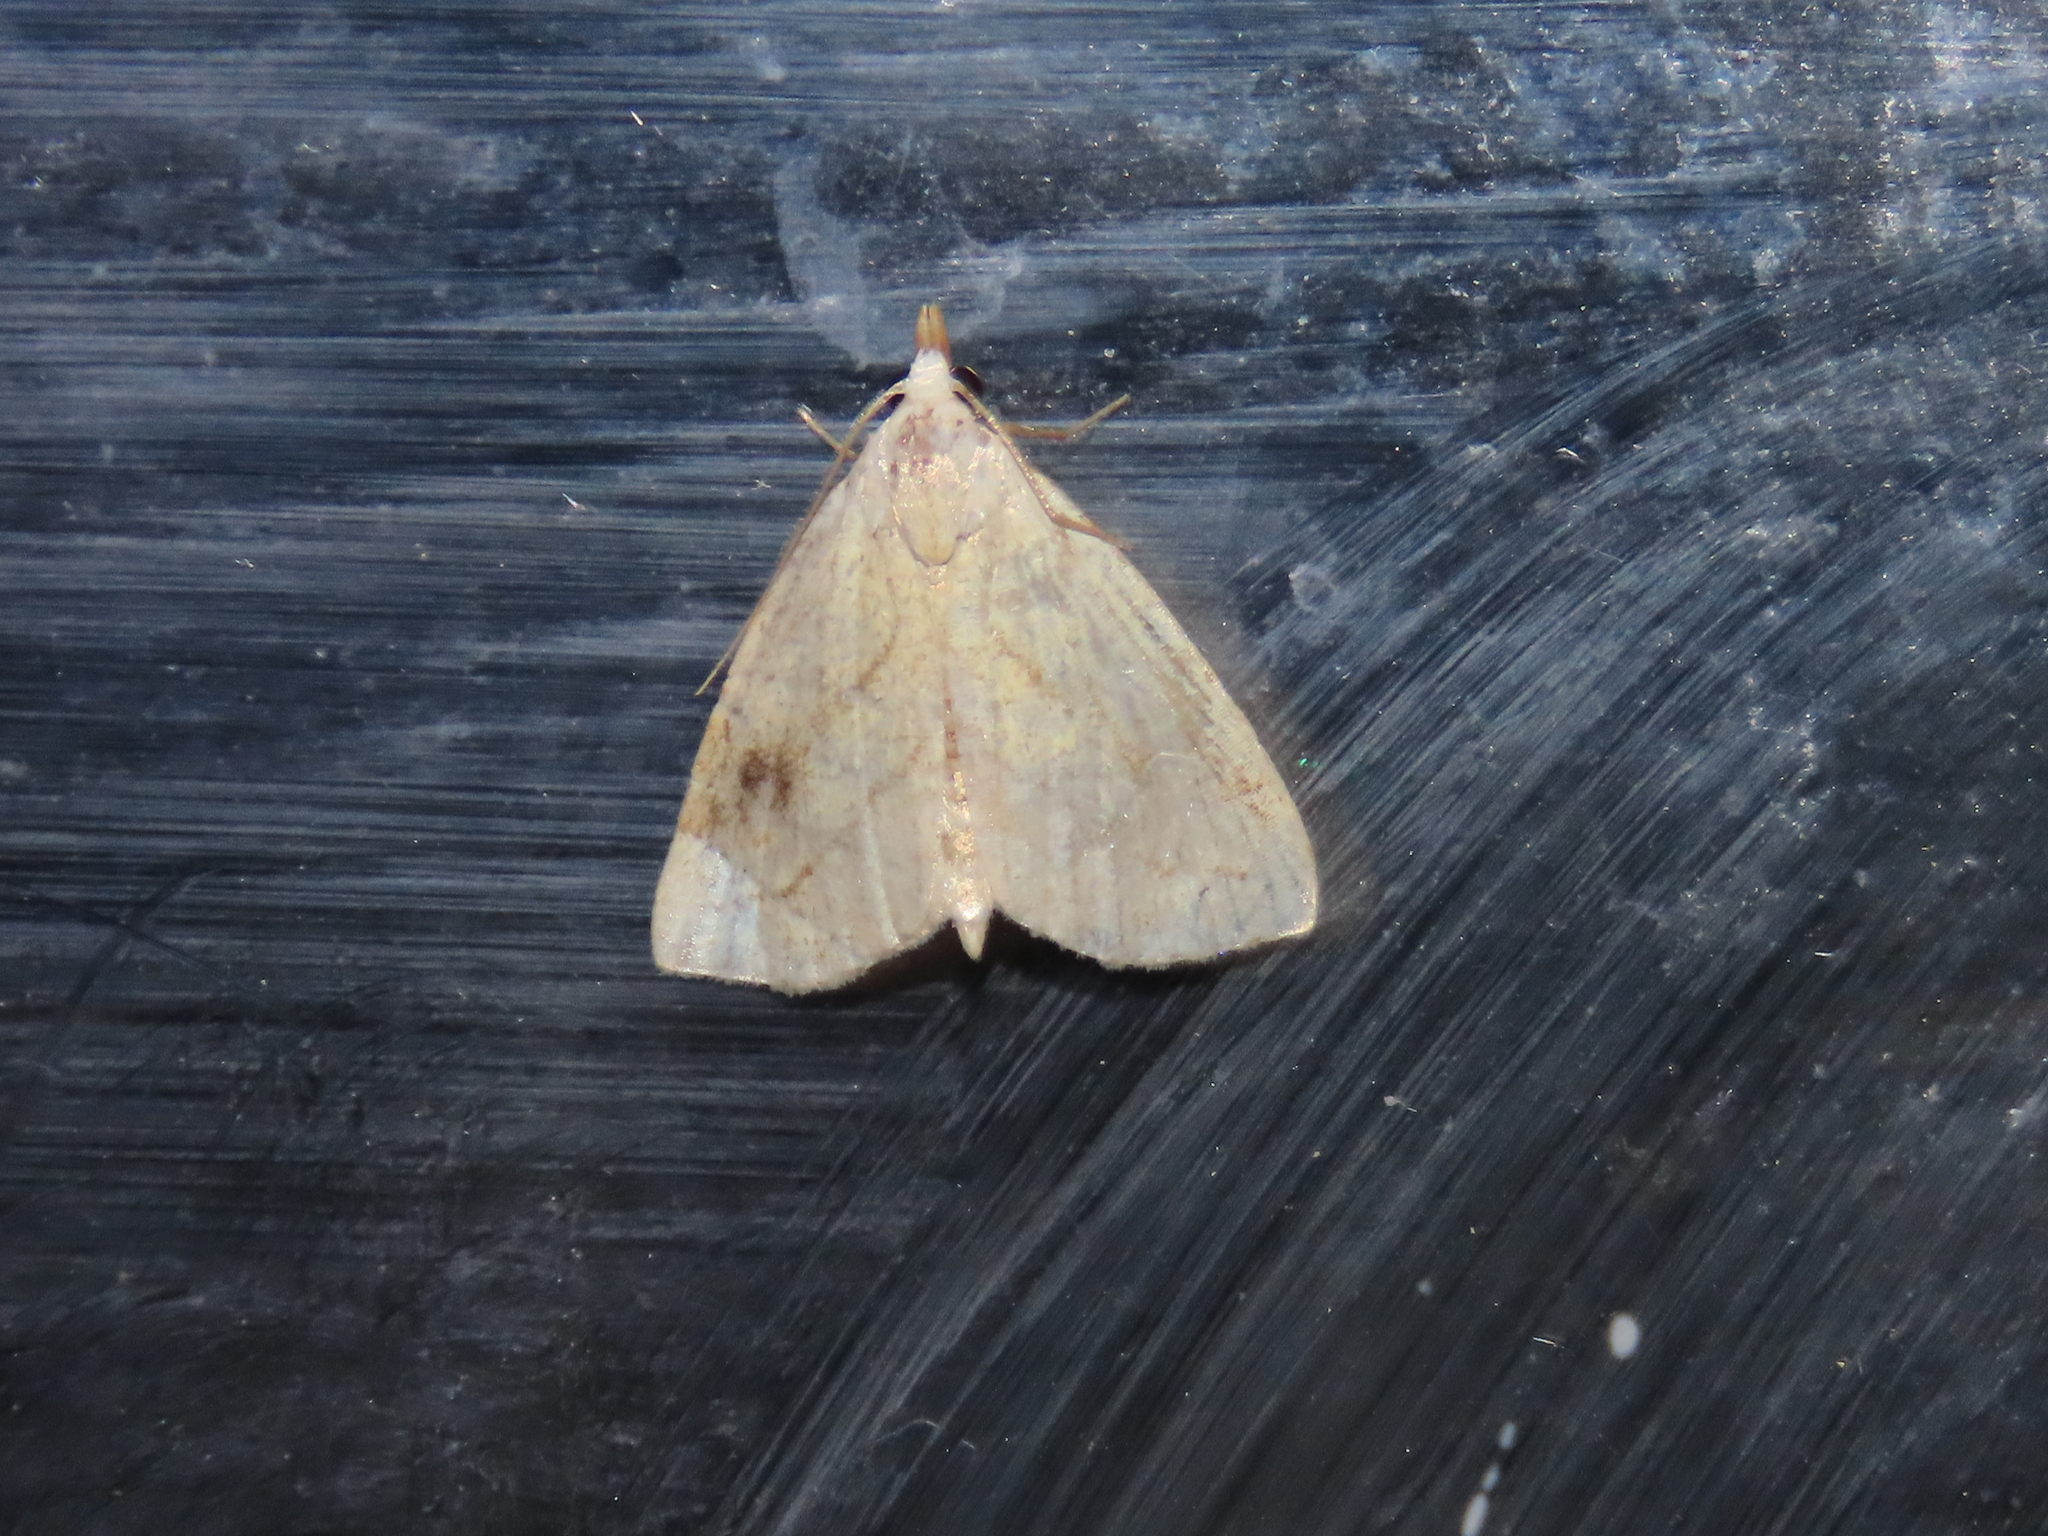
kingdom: Animalia
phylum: Arthropoda
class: Insecta
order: Lepidoptera
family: Erebidae
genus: Rivula
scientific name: Rivula propinqualis
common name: Spotted grass moth
